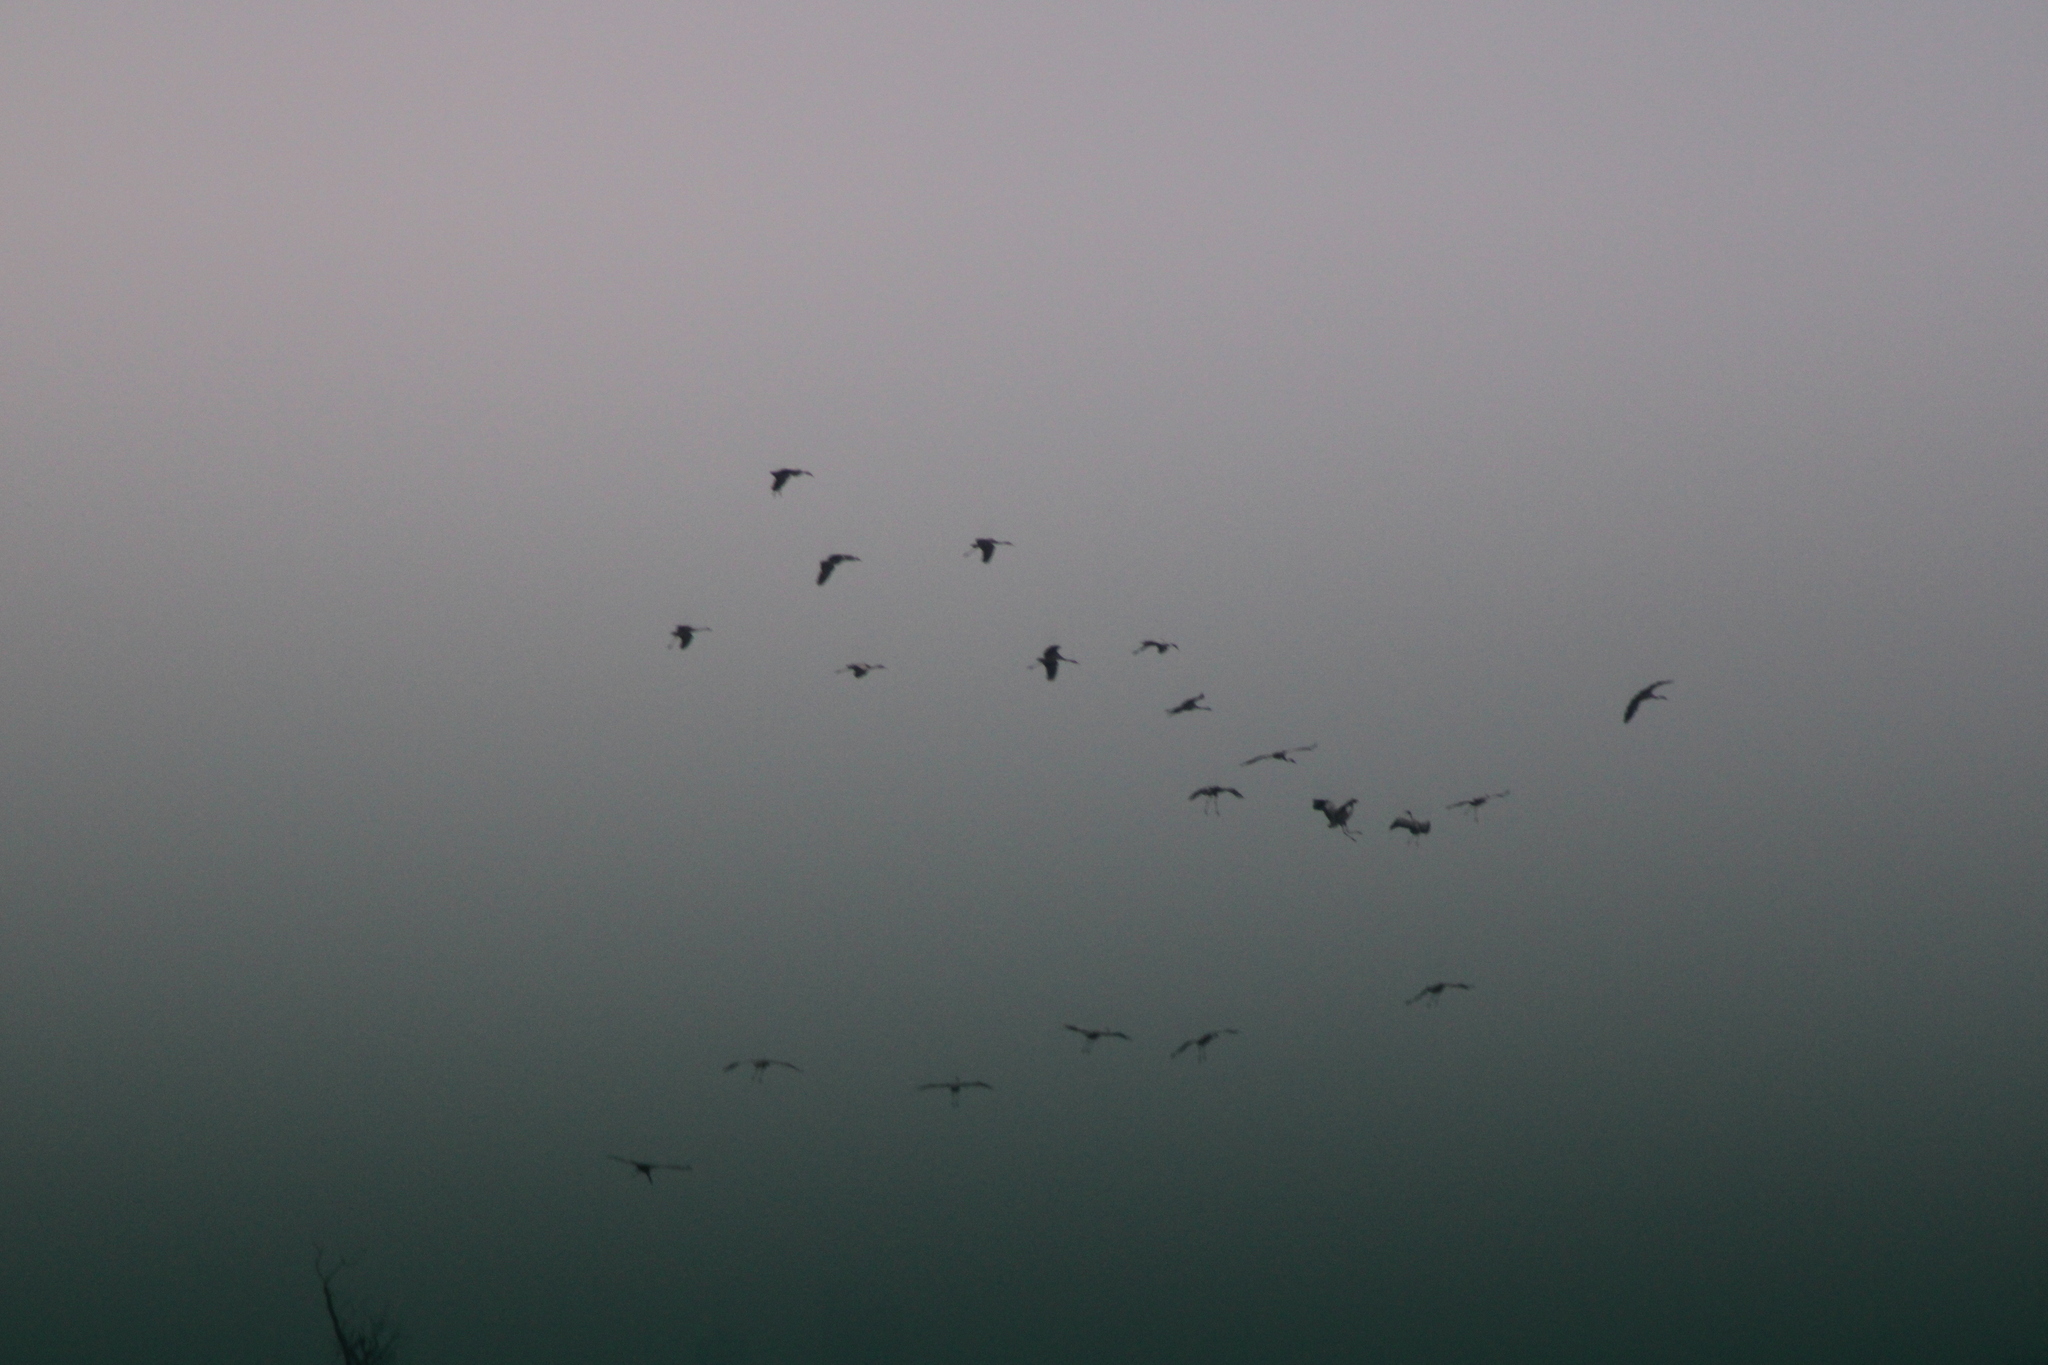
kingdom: Animalia
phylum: Chordata
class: Aves
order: Gruiformes
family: Gruidae
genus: Grus
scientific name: Grus grus
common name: Common crane
